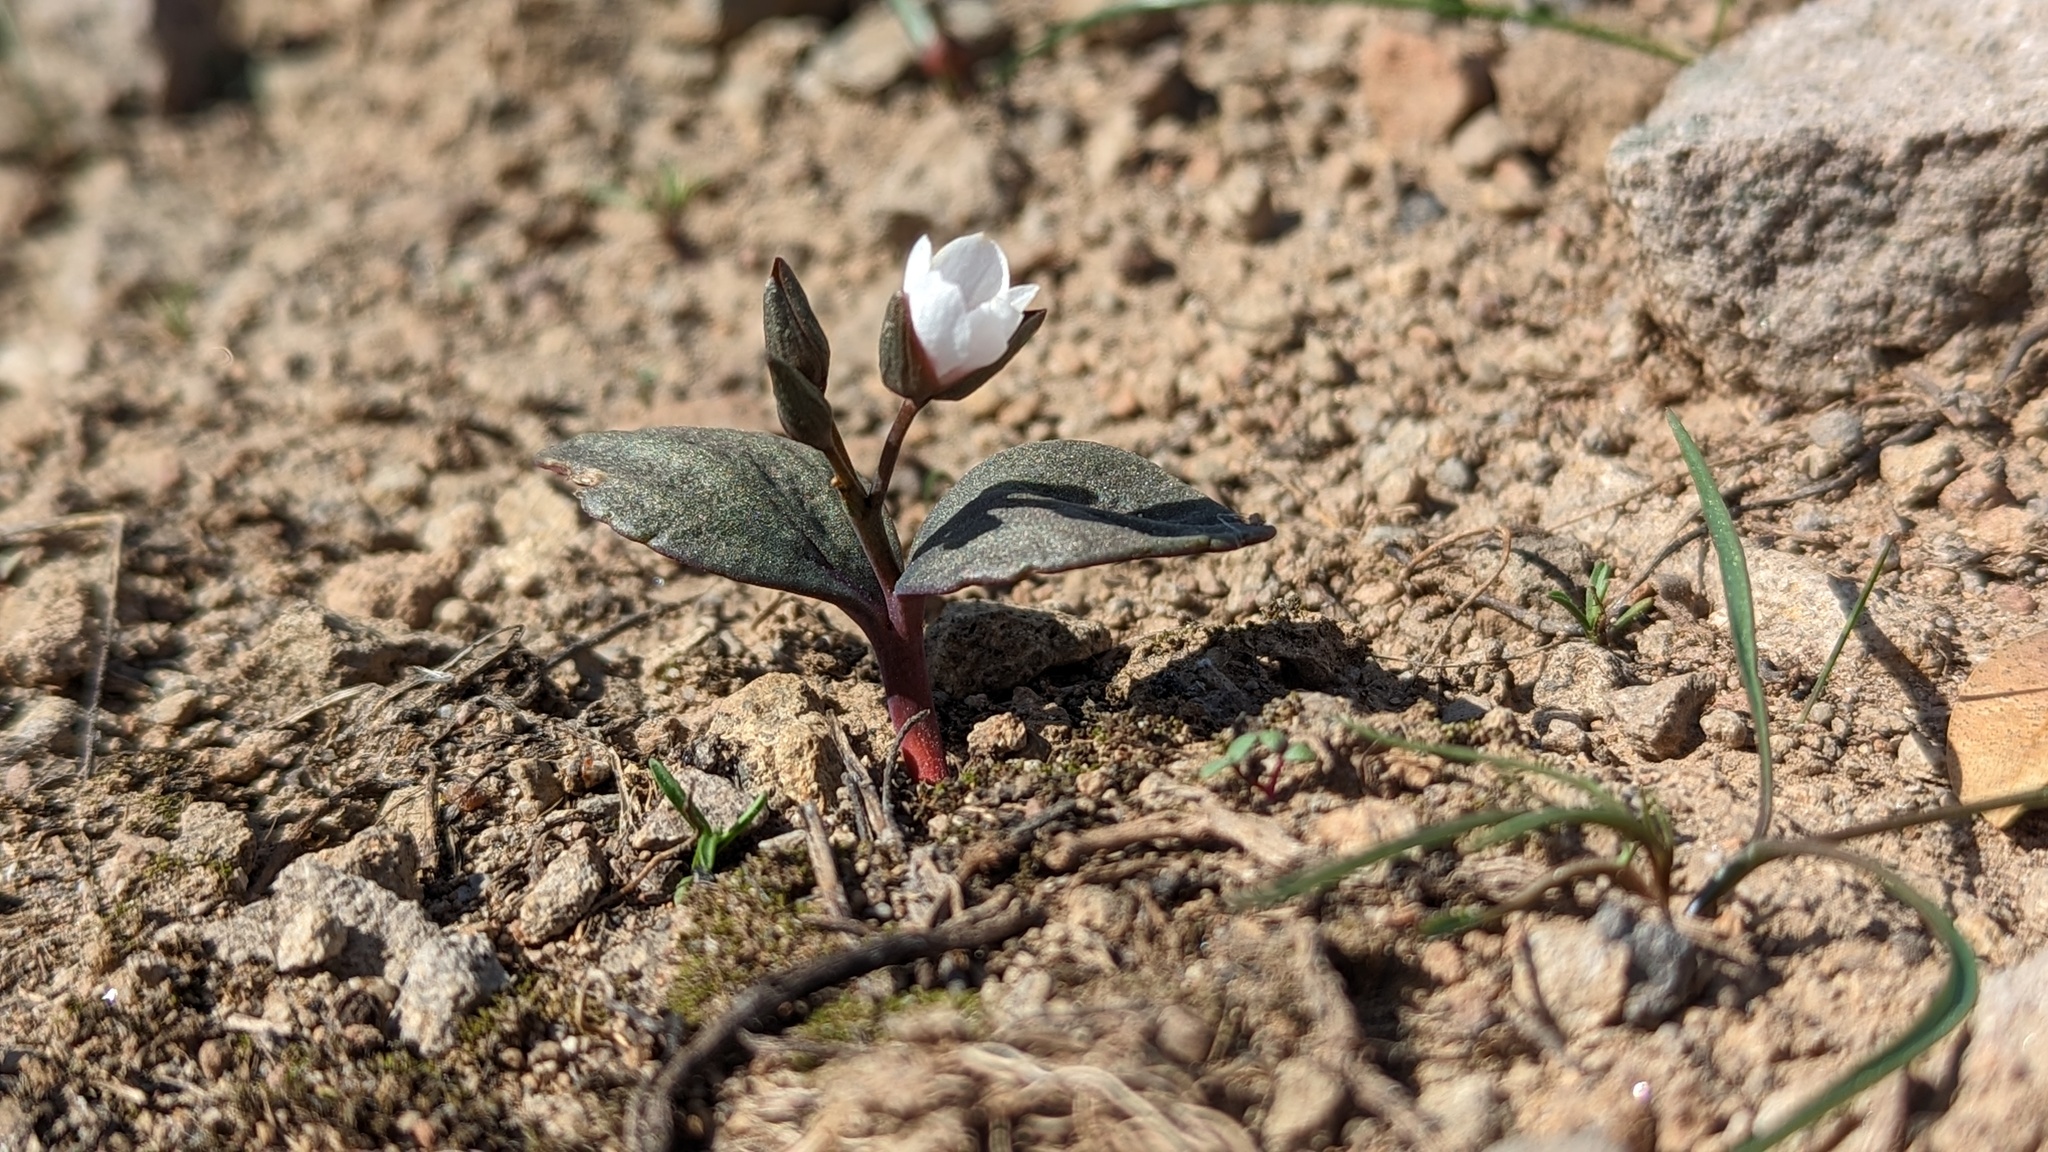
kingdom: Plantae
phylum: Tracheophyta
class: Magnoliopsida
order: Caryophyllales
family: Montiaceae
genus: Claytonia
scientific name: Claytonia crawfordii
